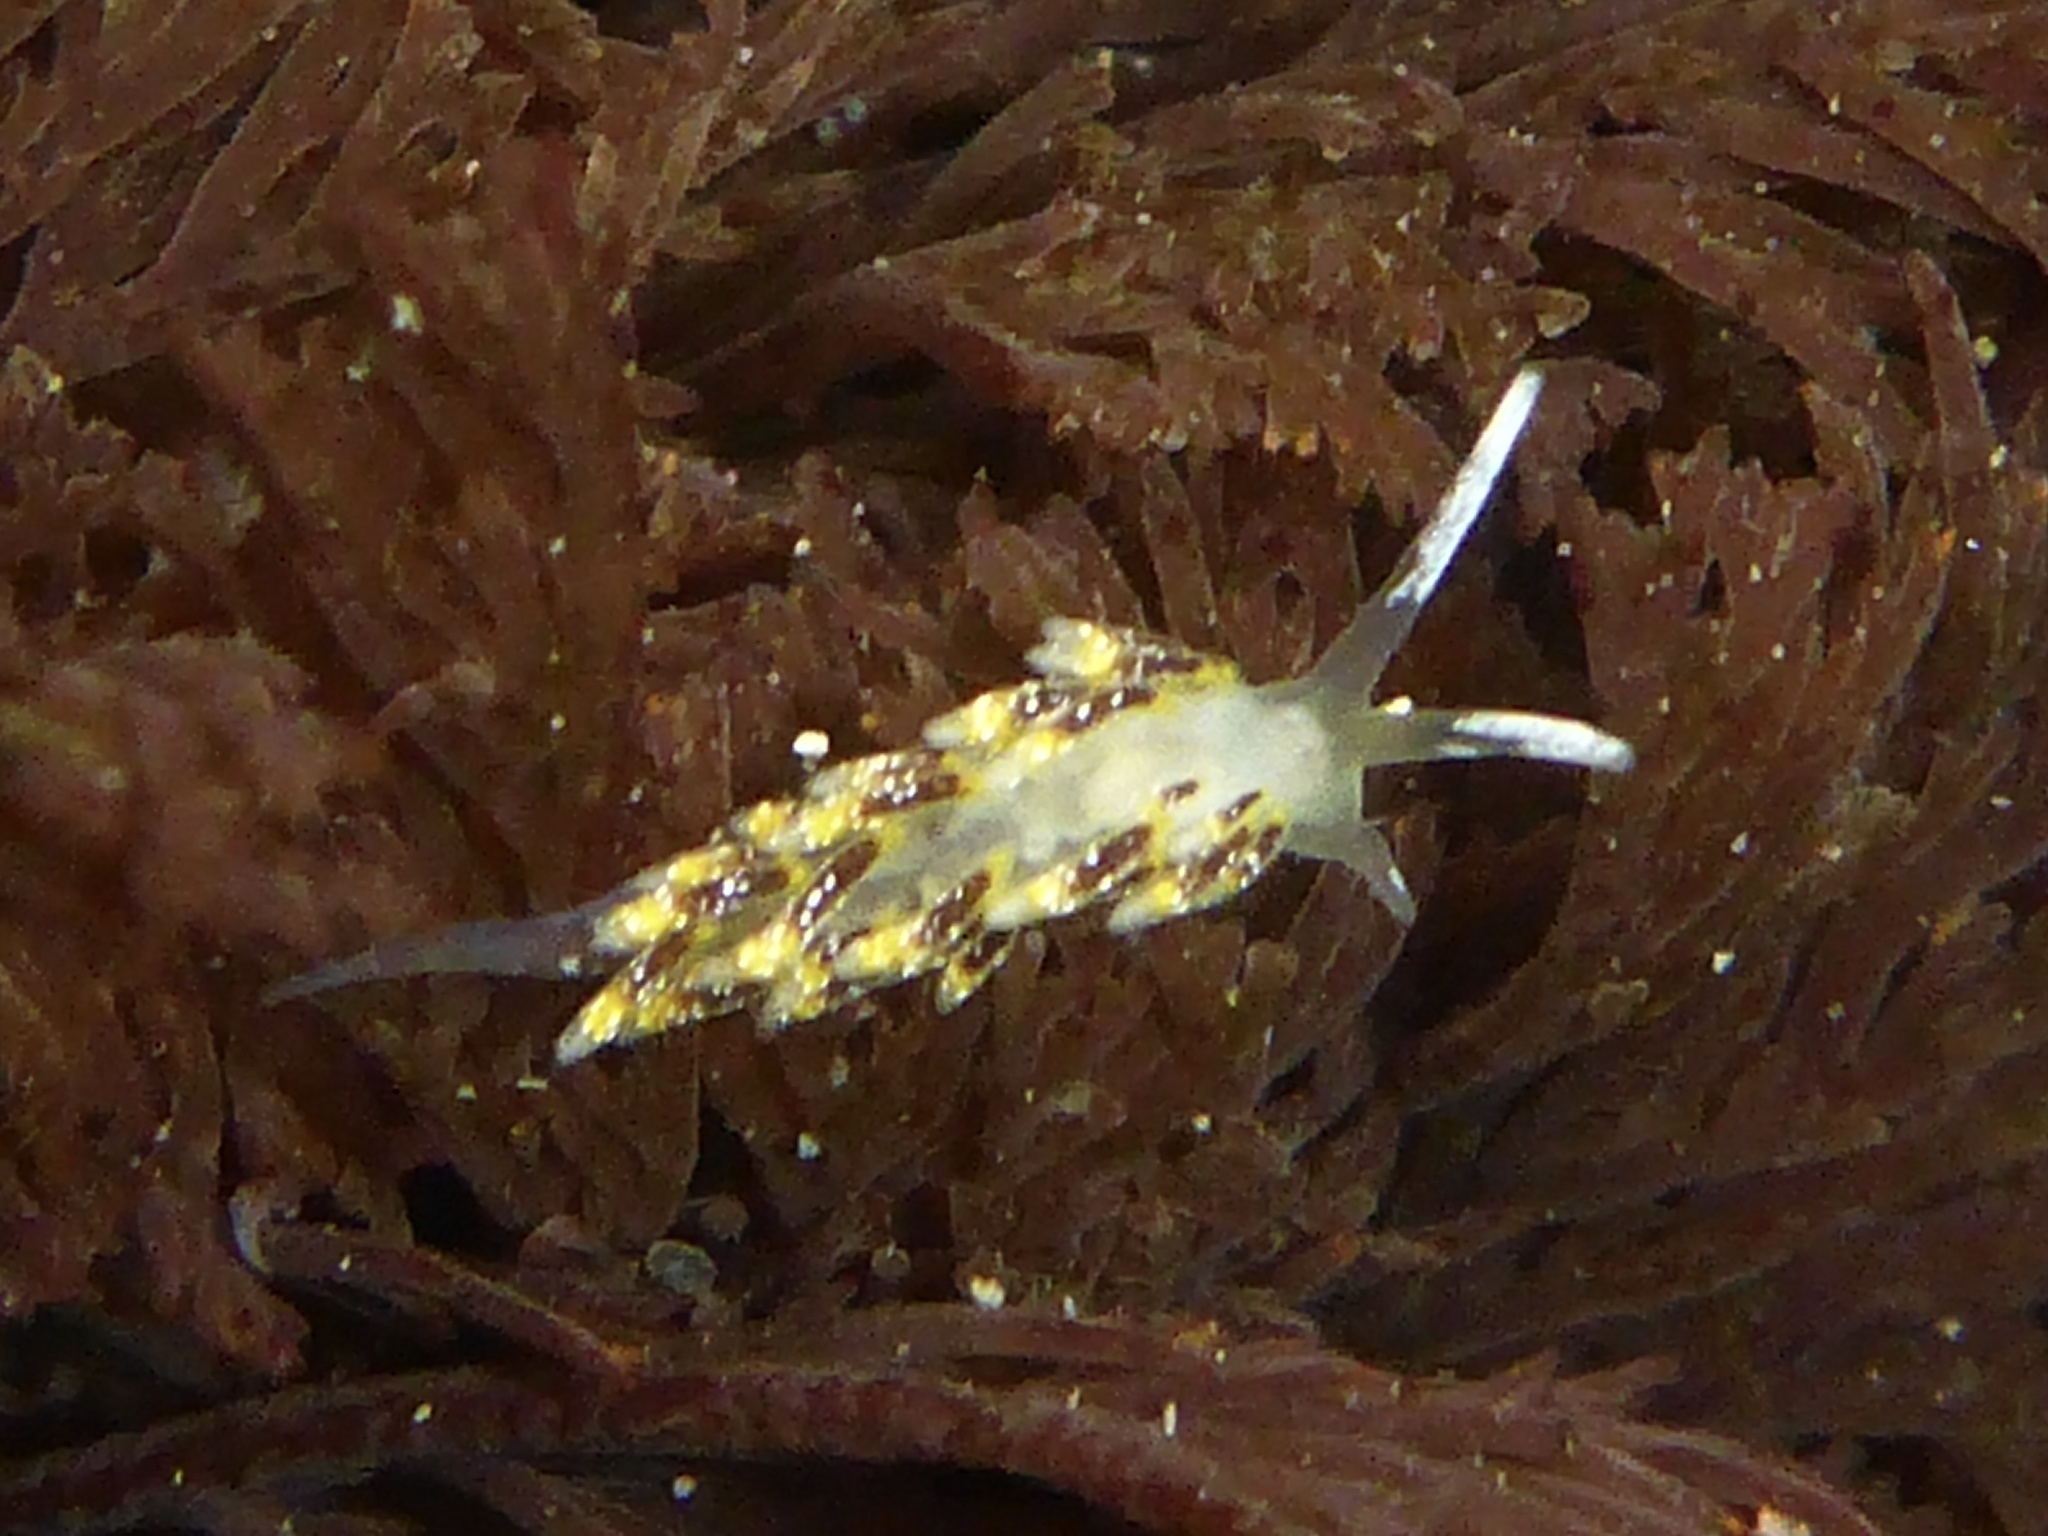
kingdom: Animalia
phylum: Mollusca
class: Gastropoda
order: Nudibranchia
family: Trinchesiidae
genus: Zelentia
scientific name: Zelentia fulgens
